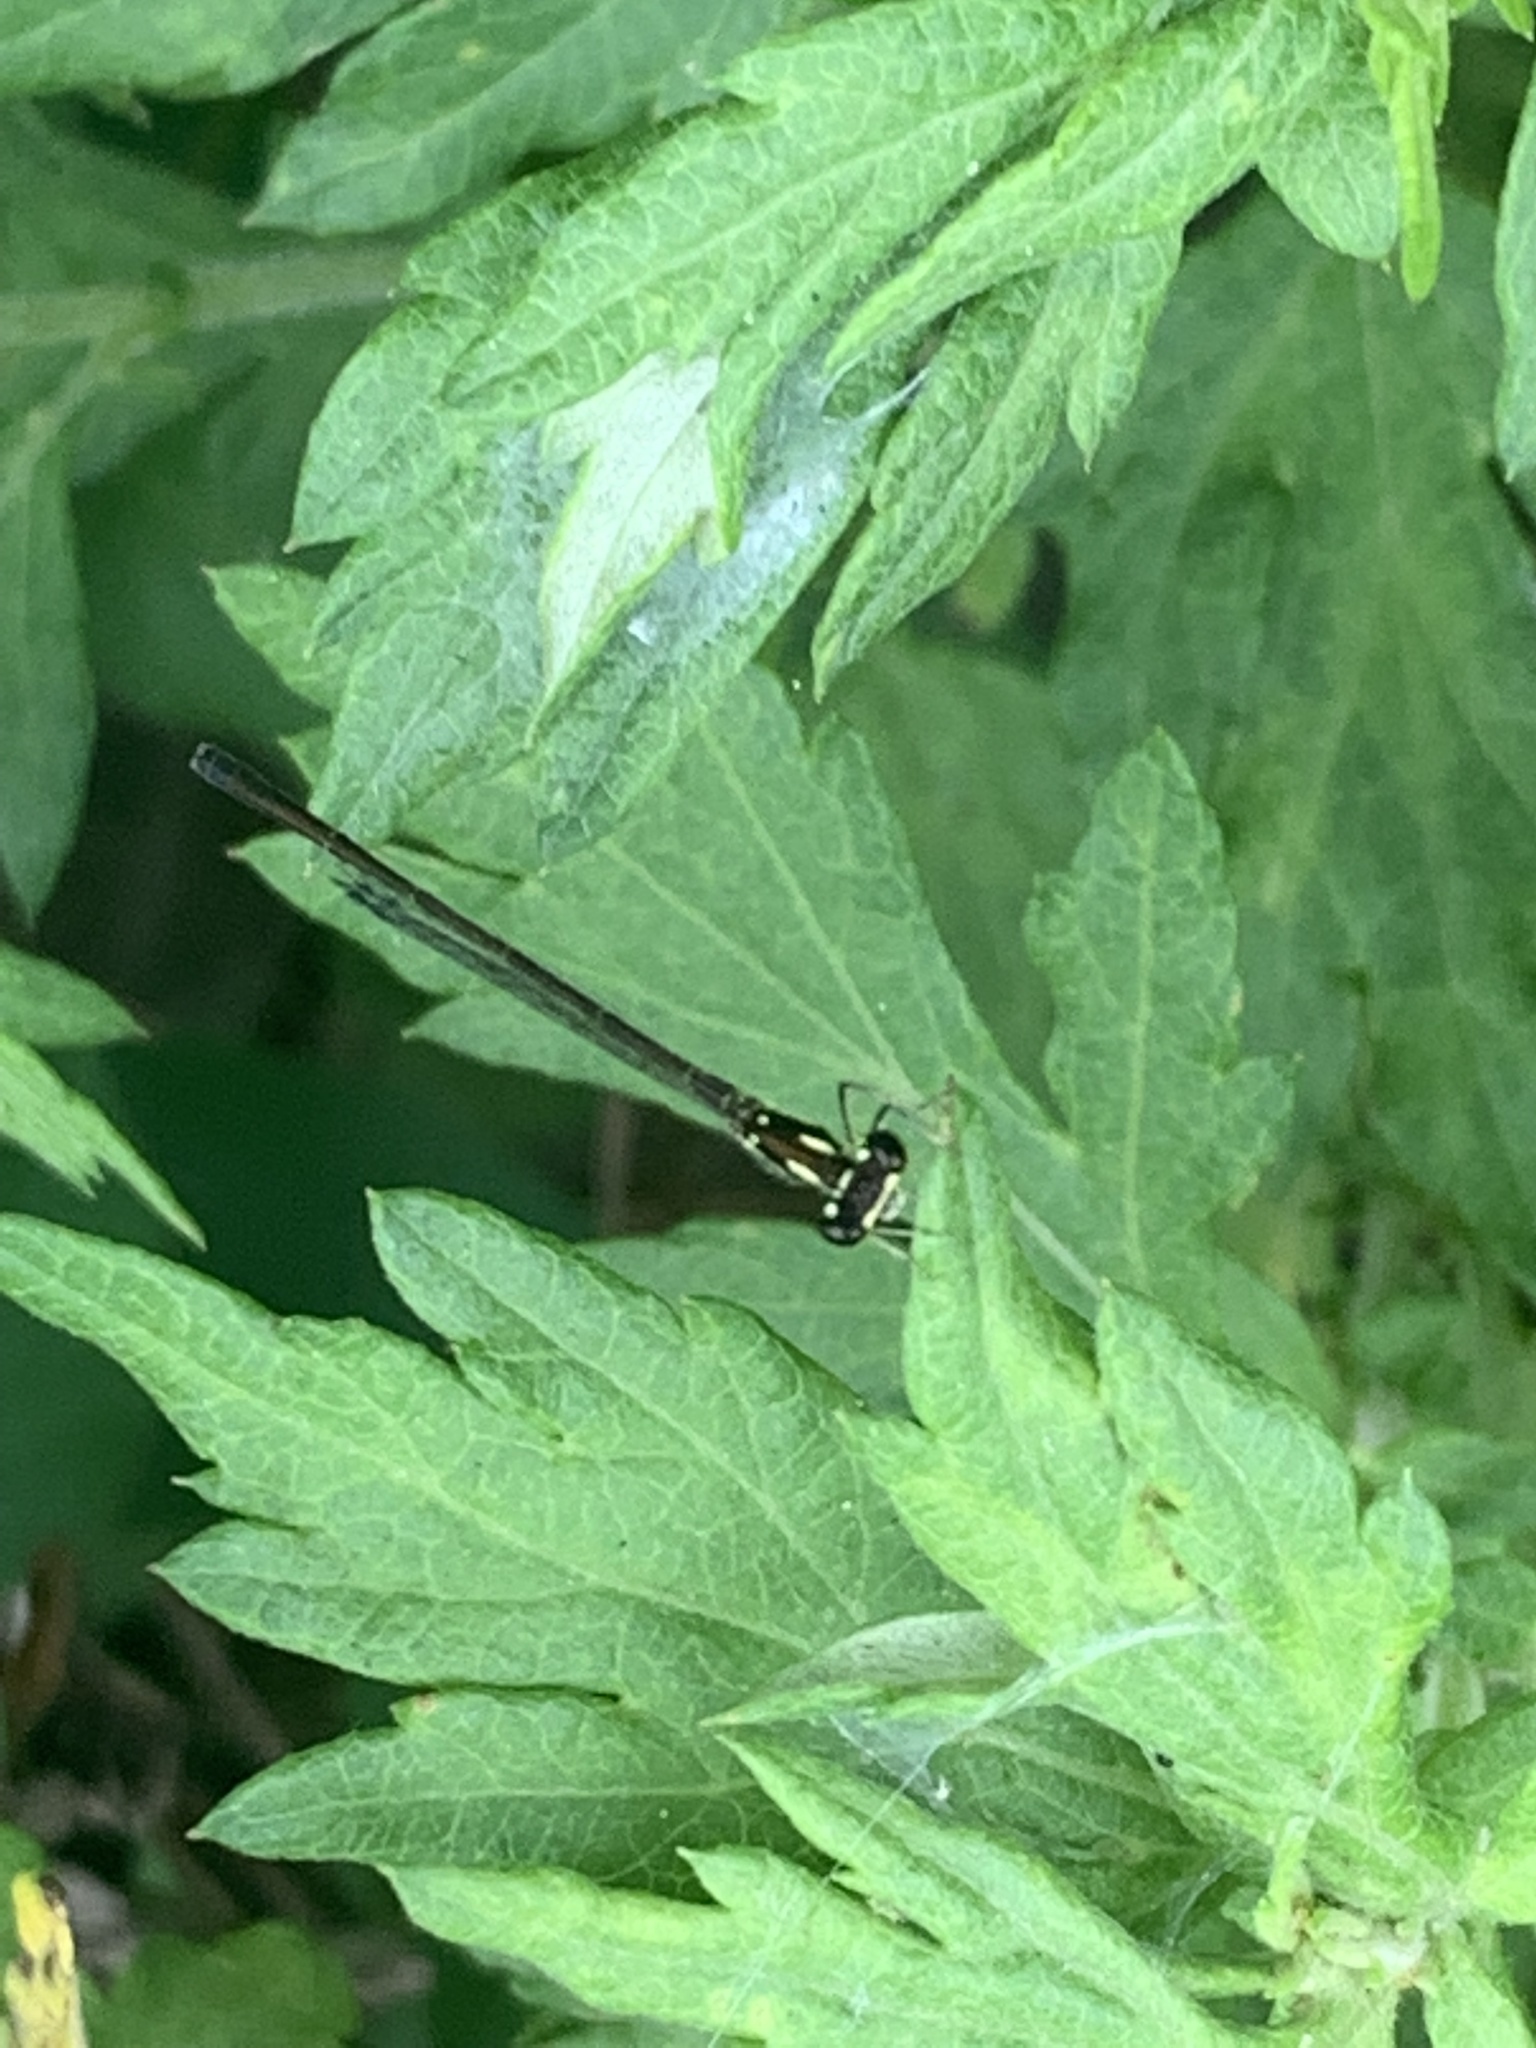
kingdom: Animalia
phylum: Arthropoda
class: Insecta
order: Odonata
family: Coenagrionidae
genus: Ischnura
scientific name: Ischnura posita
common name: Fragile forktail
